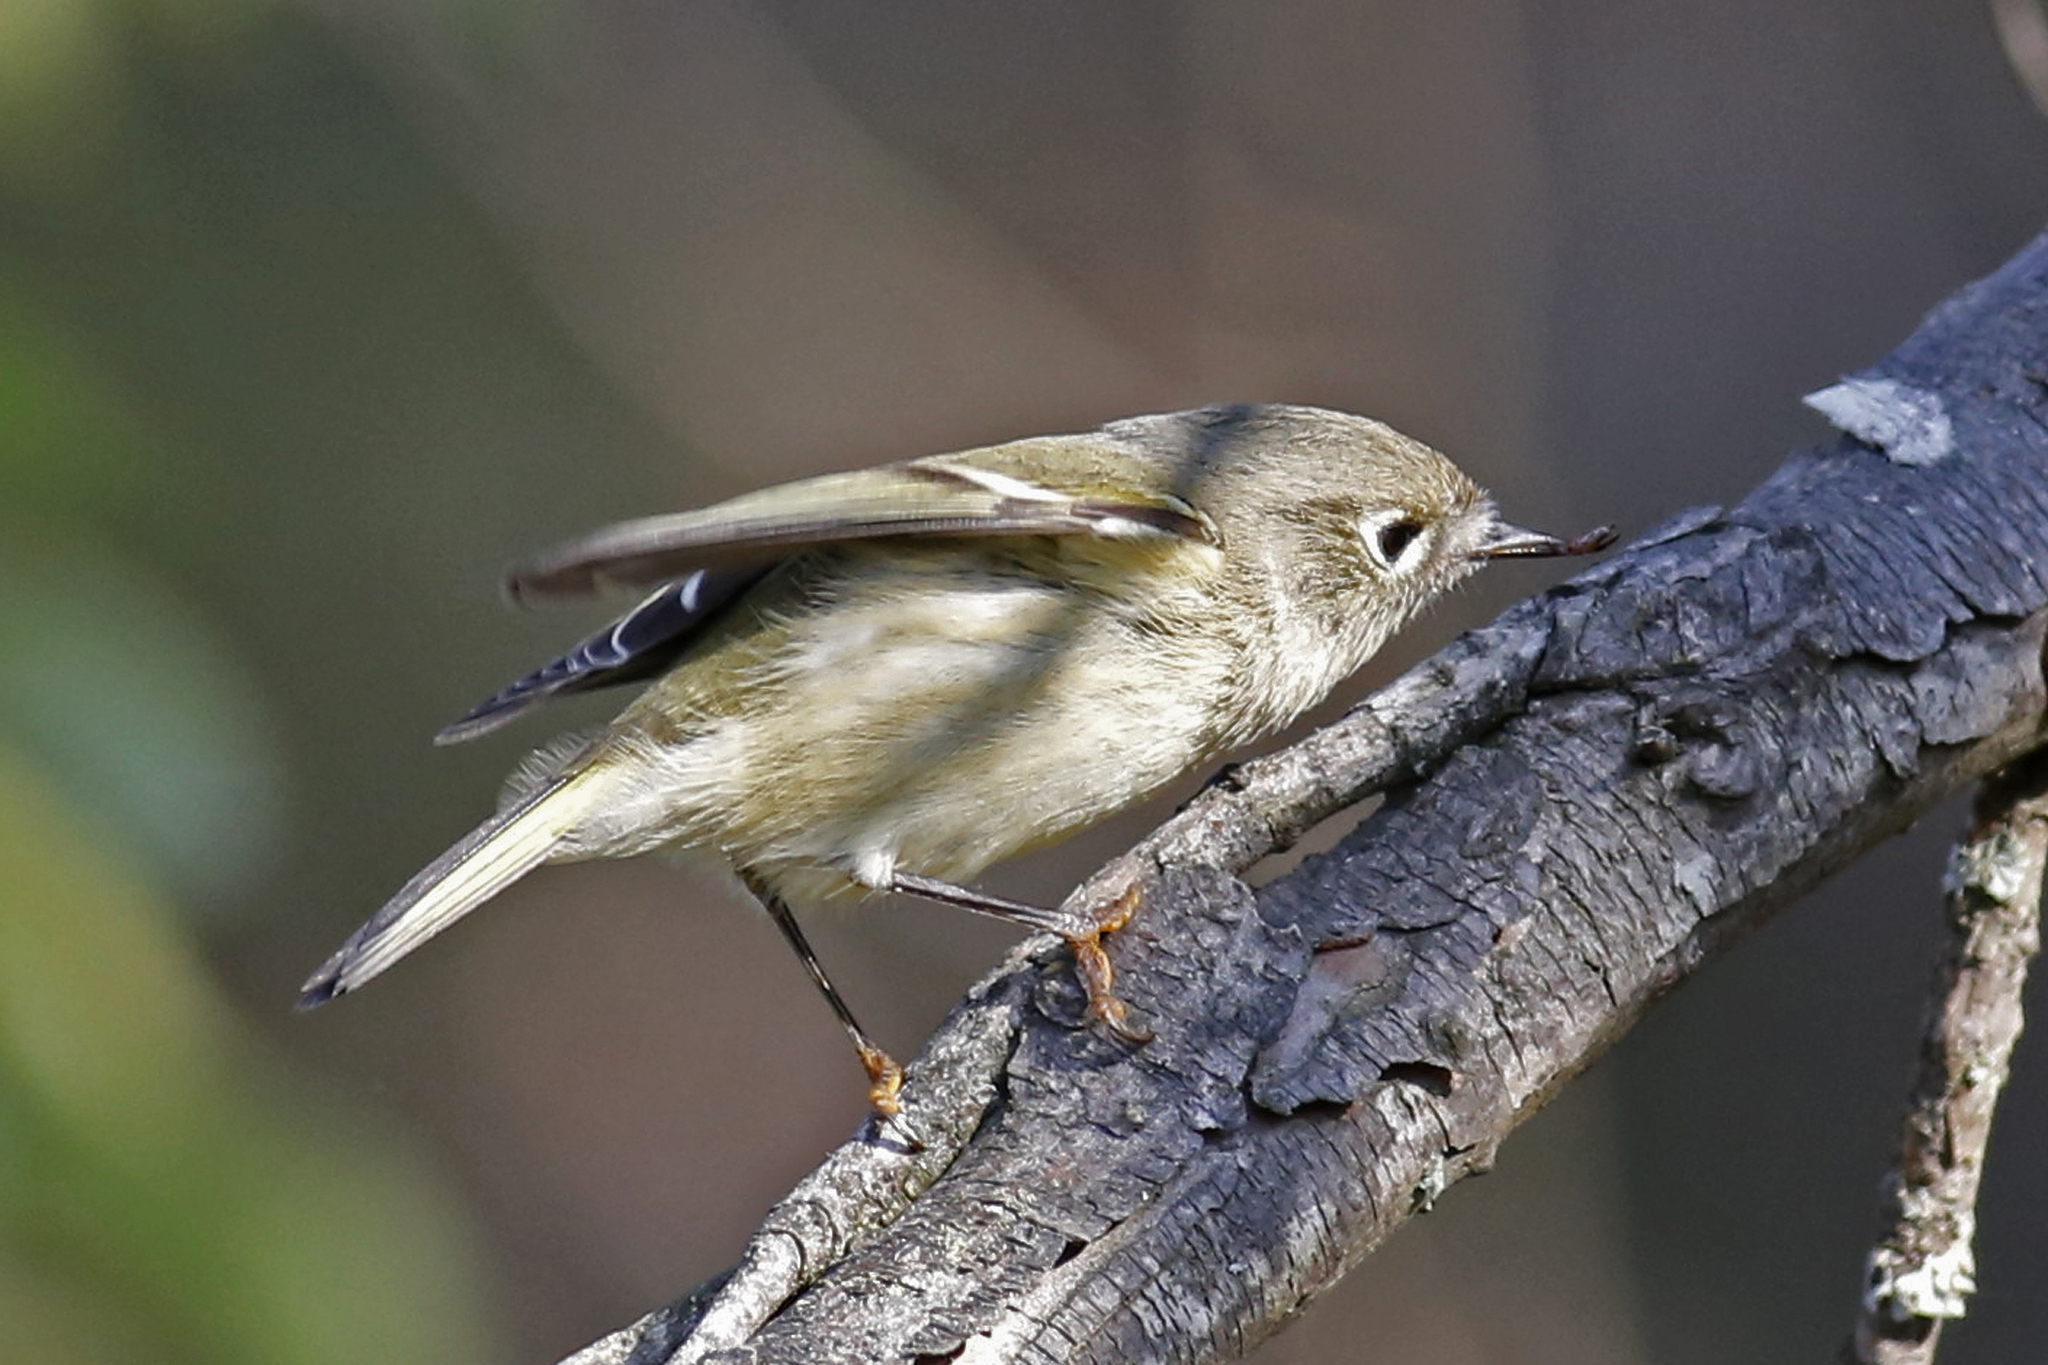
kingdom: Animalia
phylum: Chordata
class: Aves
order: Passeriformes
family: Regulidae
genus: Regulus
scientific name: Regulus calendula
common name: Ruby-crowned kinglet
